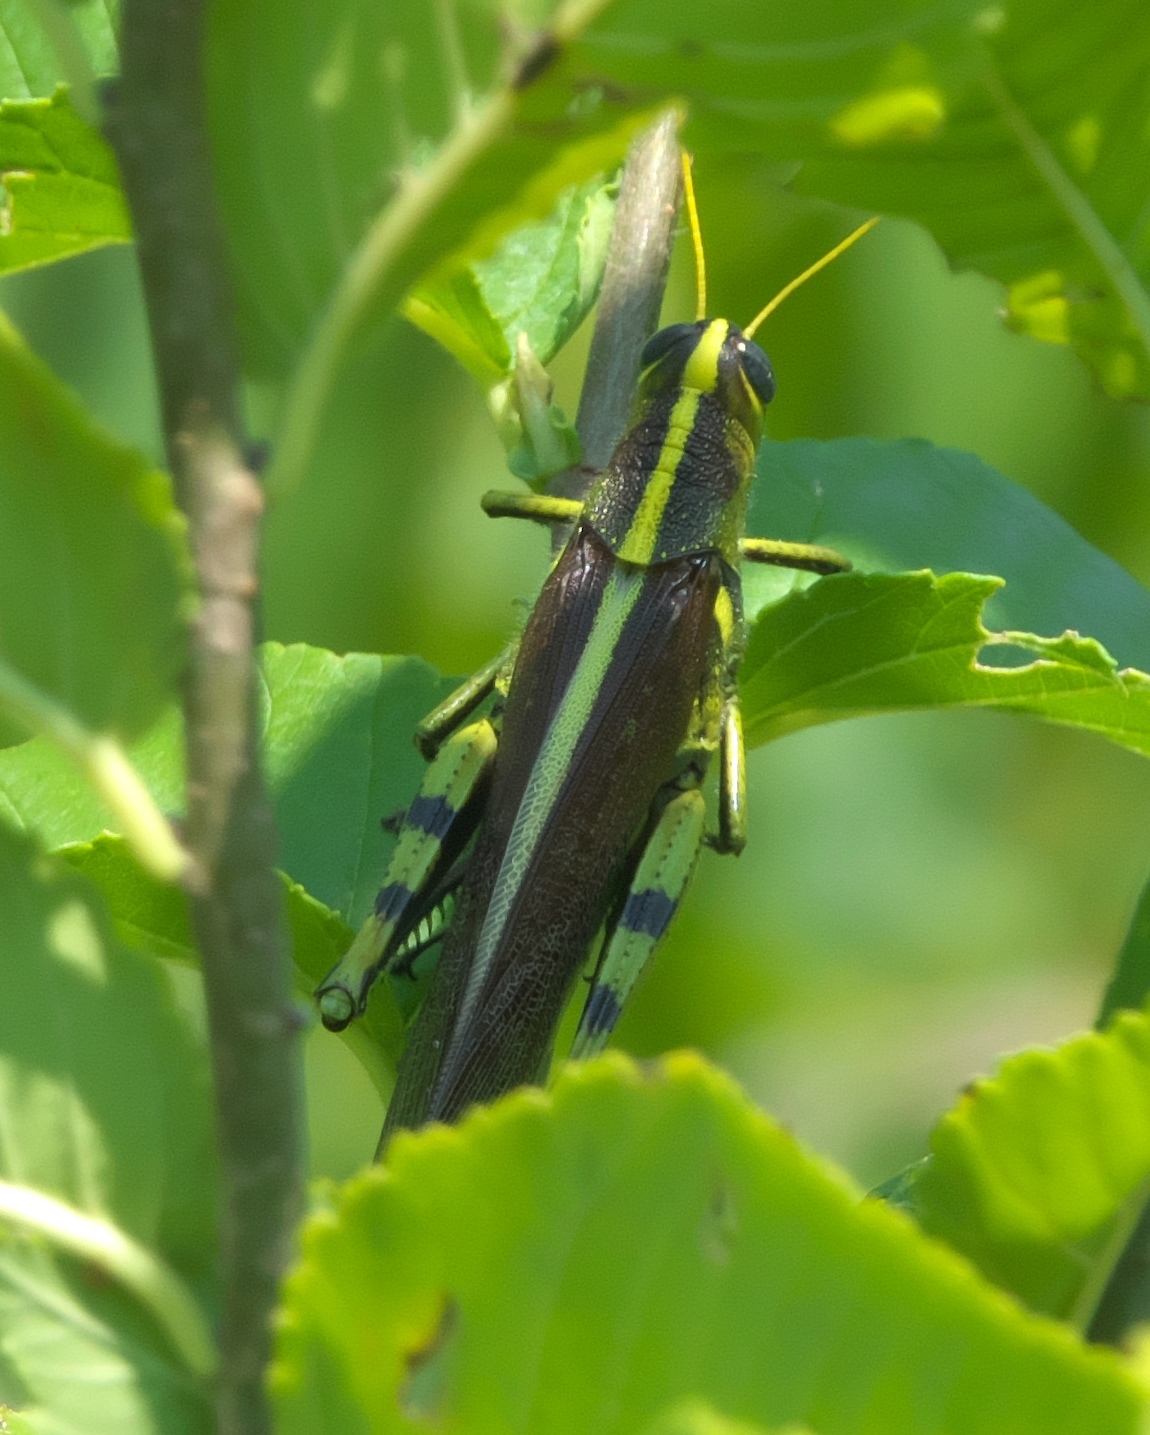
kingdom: Animalia
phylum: Arthropoda
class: Insecta
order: Orthoptera
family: Acrididae
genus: Schistocerca
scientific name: Schistocerca obscura
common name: Obscure bird grasshopper
